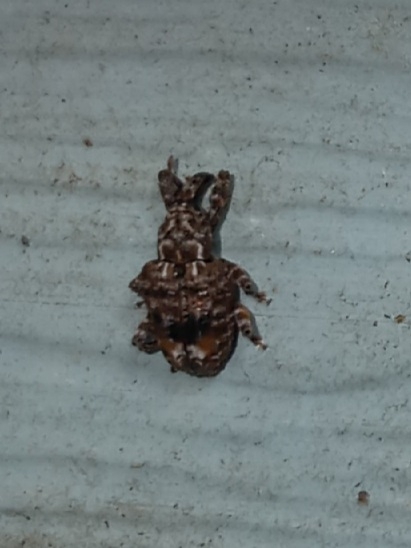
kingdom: Animalia
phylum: Arthropoda
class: Insecta
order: Coleoptera
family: Curculionidae
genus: Conotrachelus
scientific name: Conotrachelus nenuphar
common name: Plum curculio
